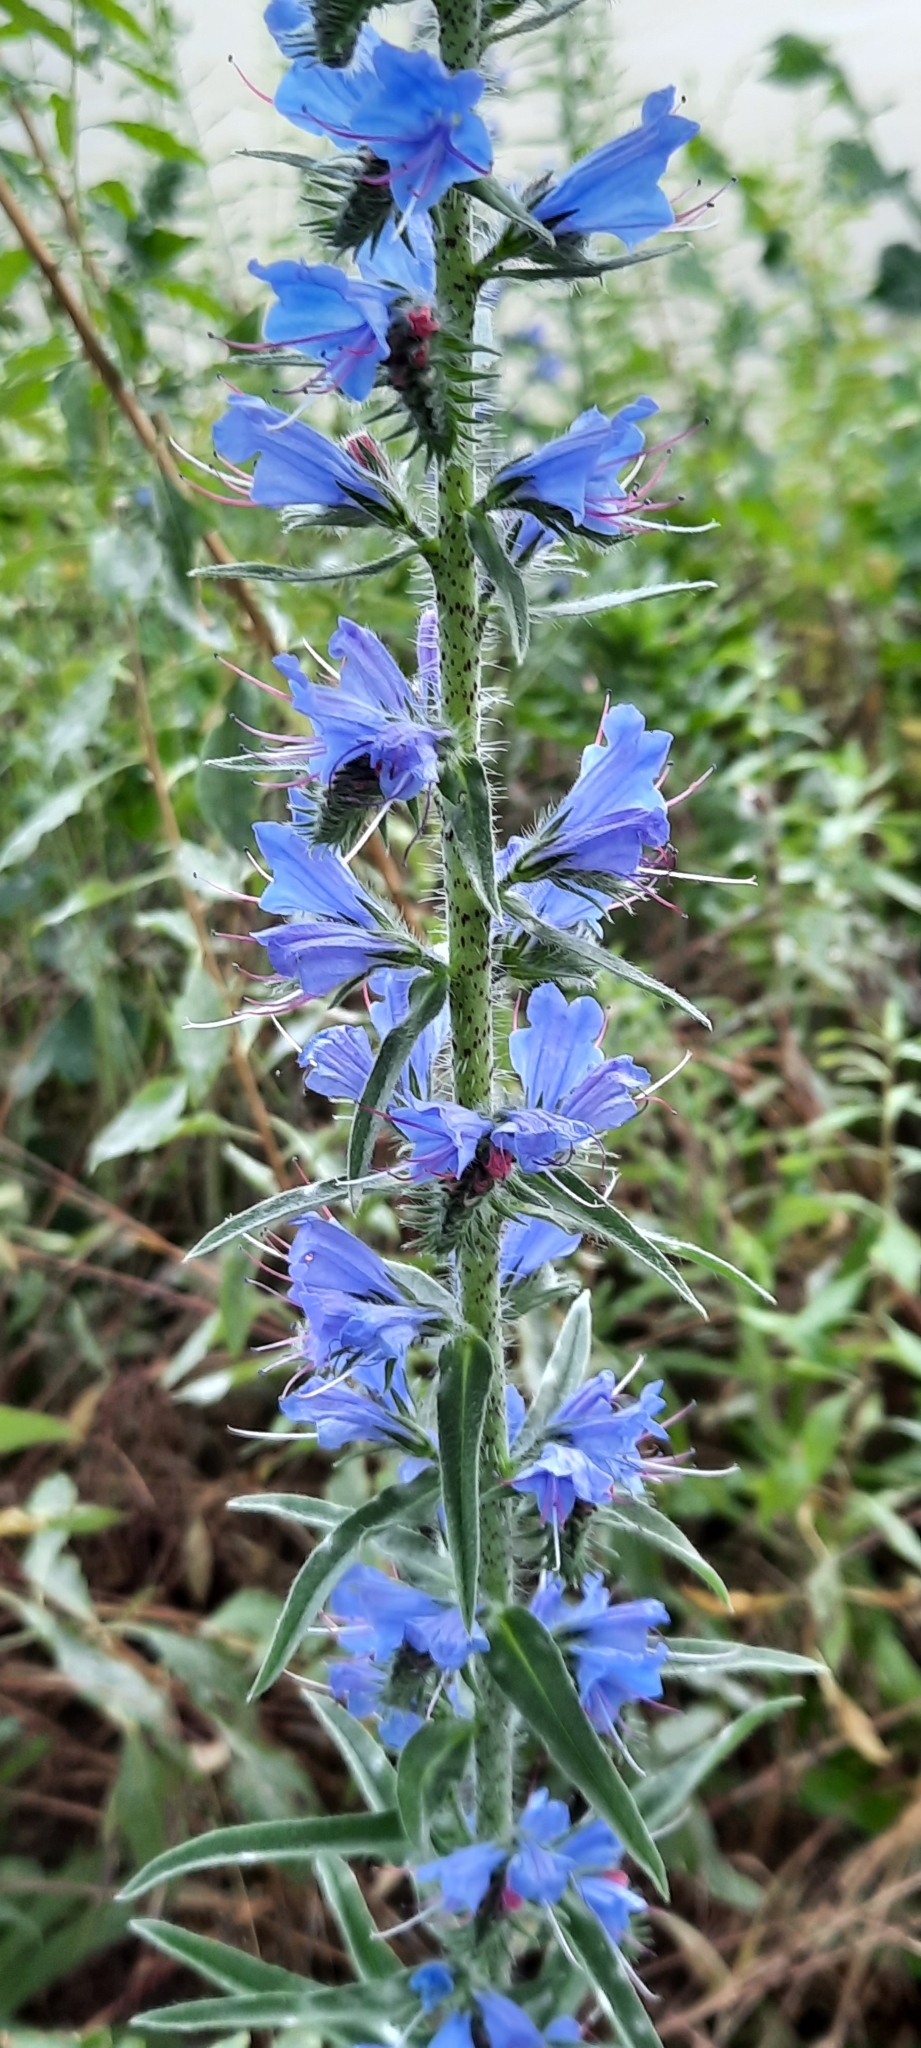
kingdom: Plantae
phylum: Tracheophyta
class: Magnoliopsida
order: Boraginales
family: Boraginaceae
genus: Echium
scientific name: Echium vulgare
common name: Common viper's bugloss
